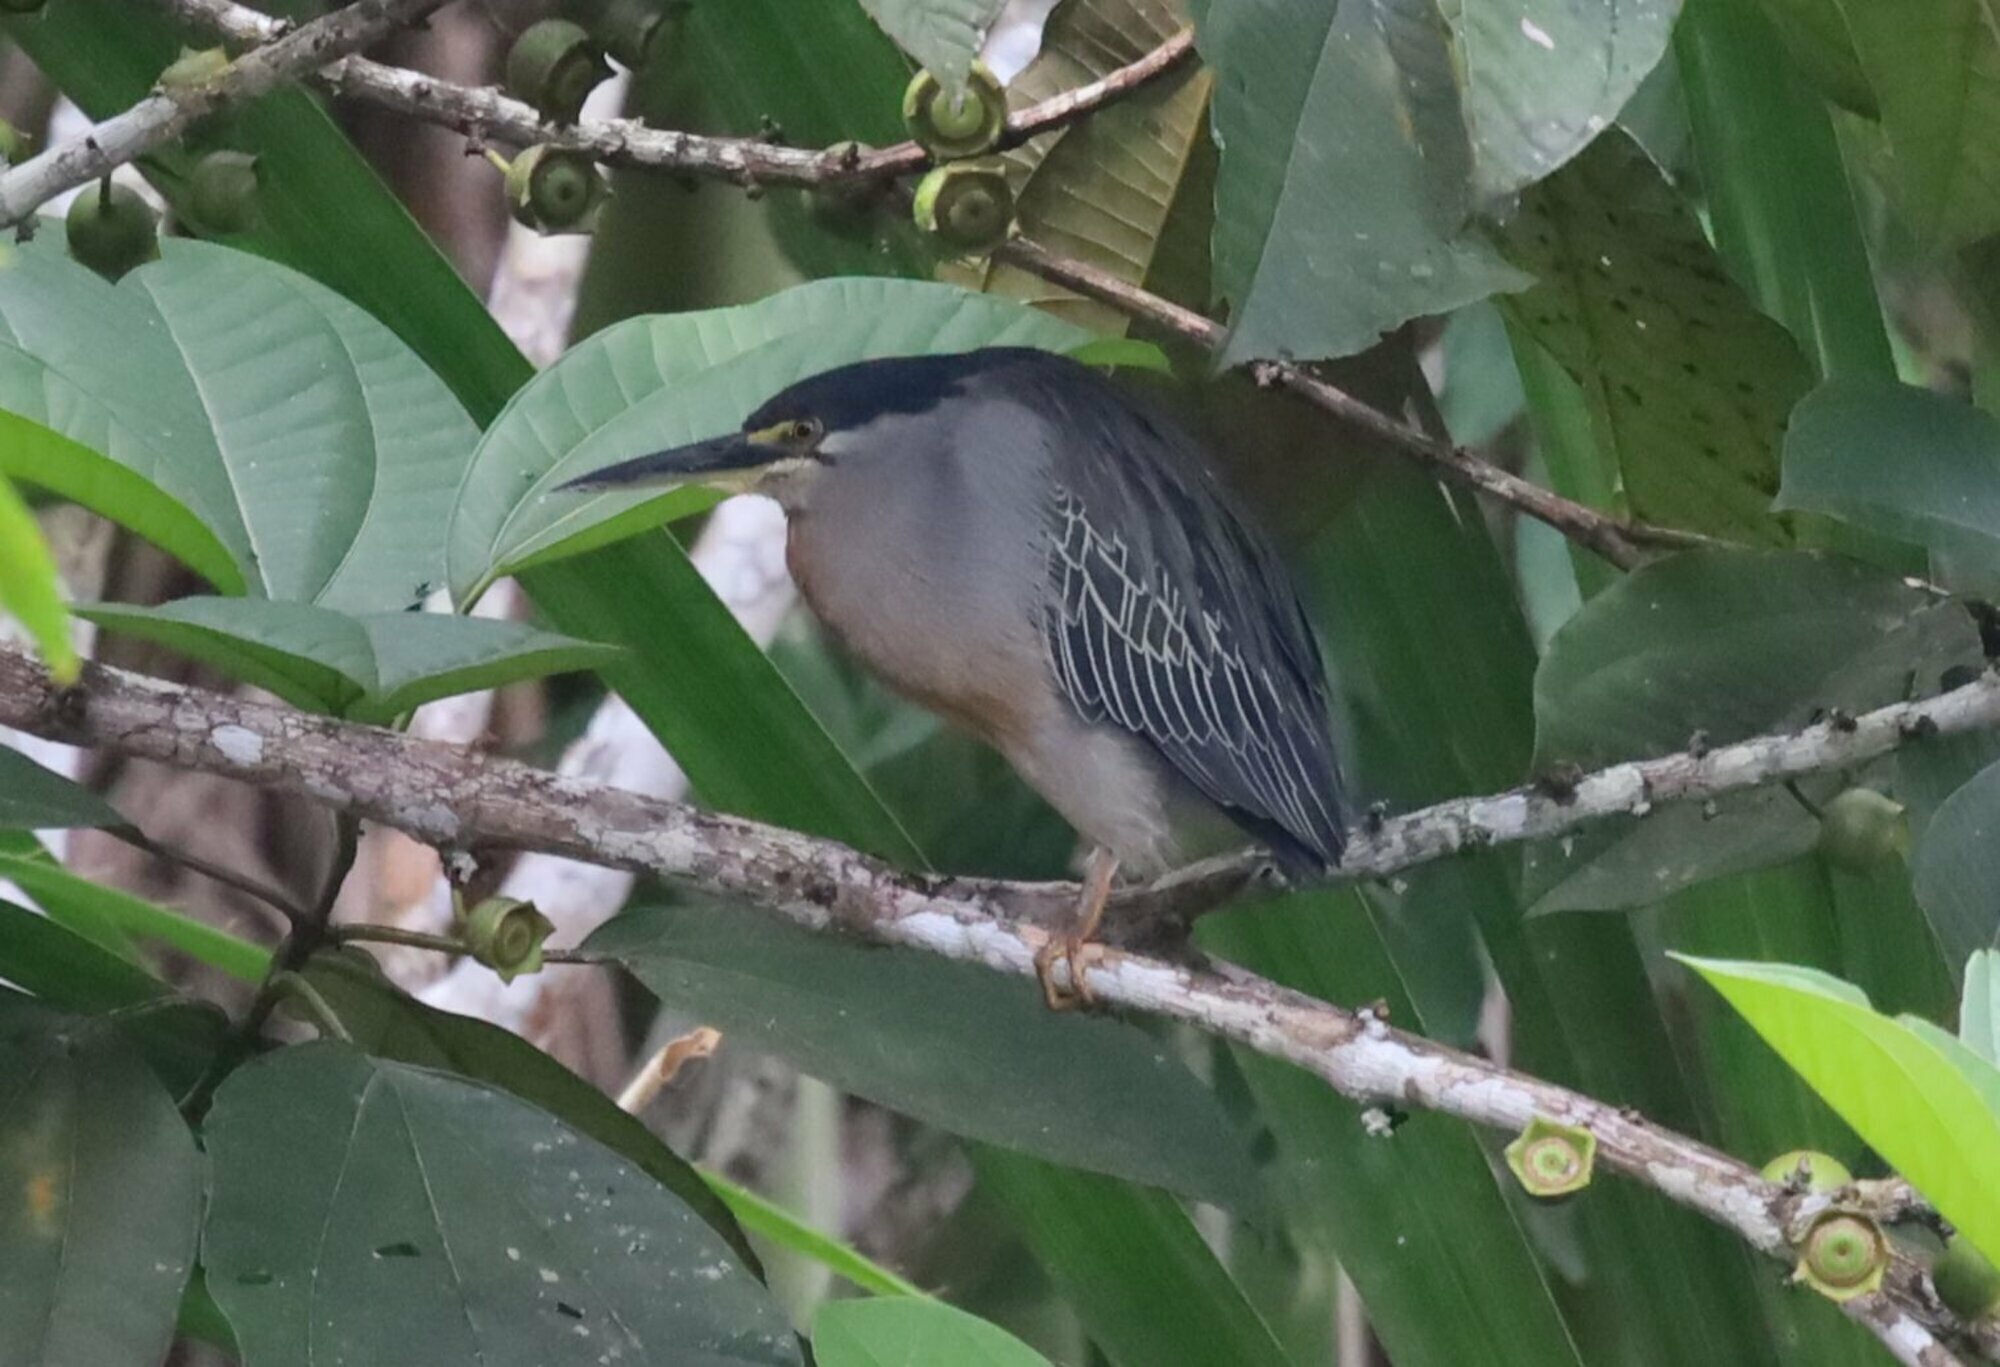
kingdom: Animalia
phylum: Chordata
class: Aves
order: Pelecaniformes
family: Ardeidae
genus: Butorides
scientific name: Butorides striata
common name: Striated heron
